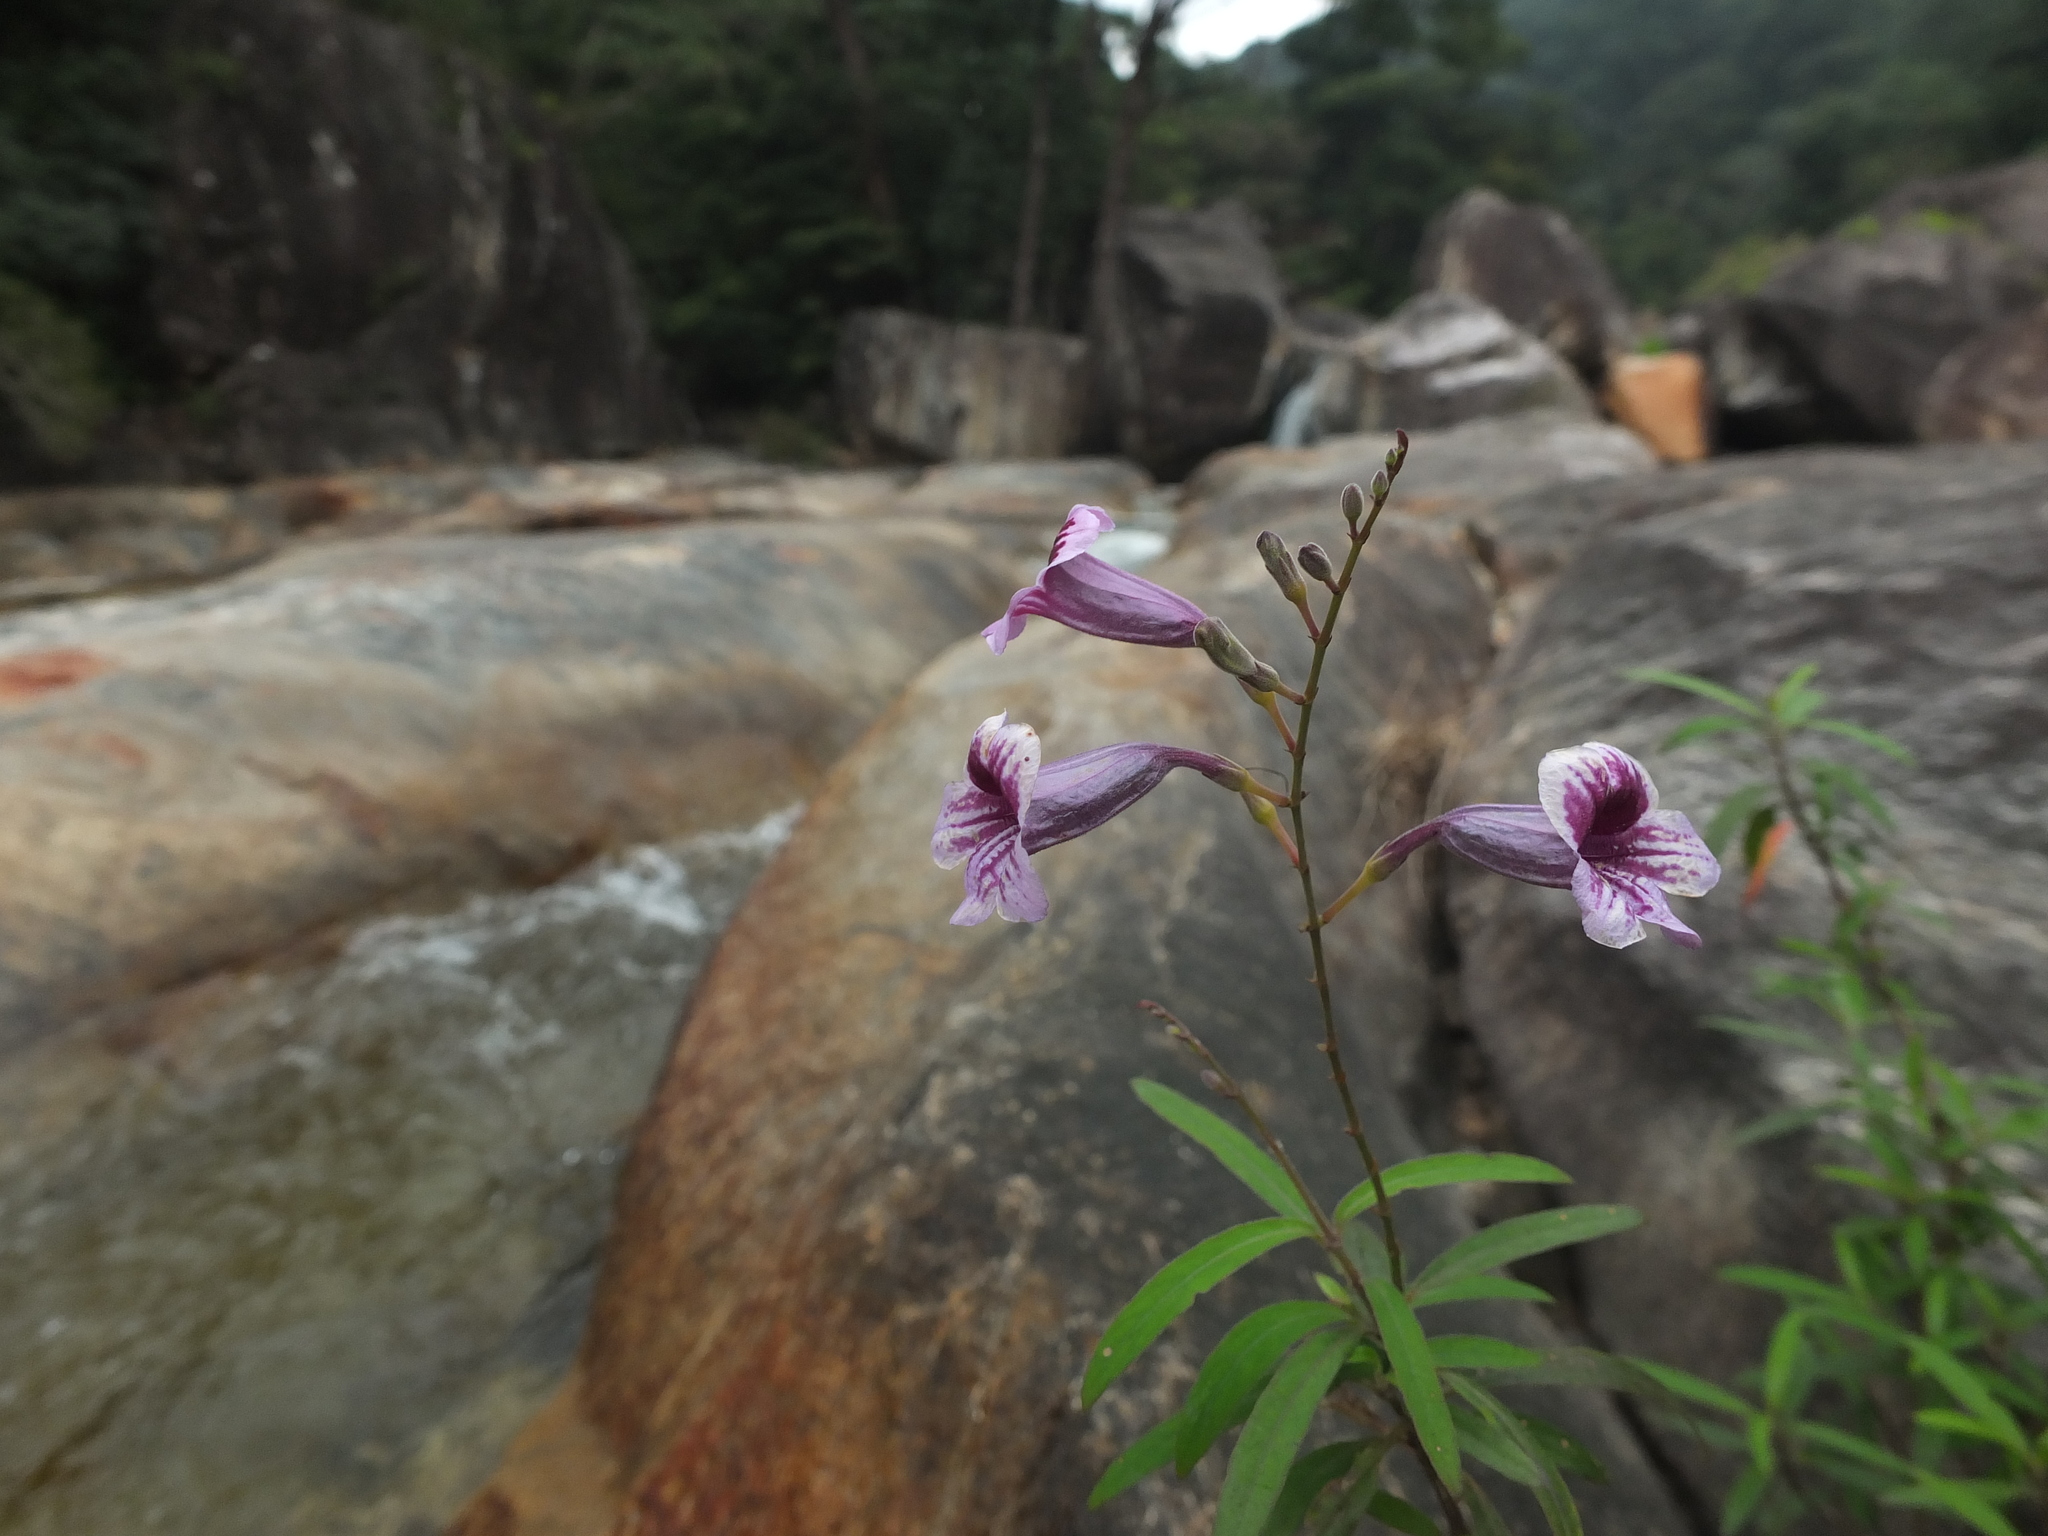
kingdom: Plantae
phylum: Tracheophyta
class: Magnoliopsida
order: Lamiales
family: Acanthaceae
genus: Asystasia
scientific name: Asystasia travancorica
